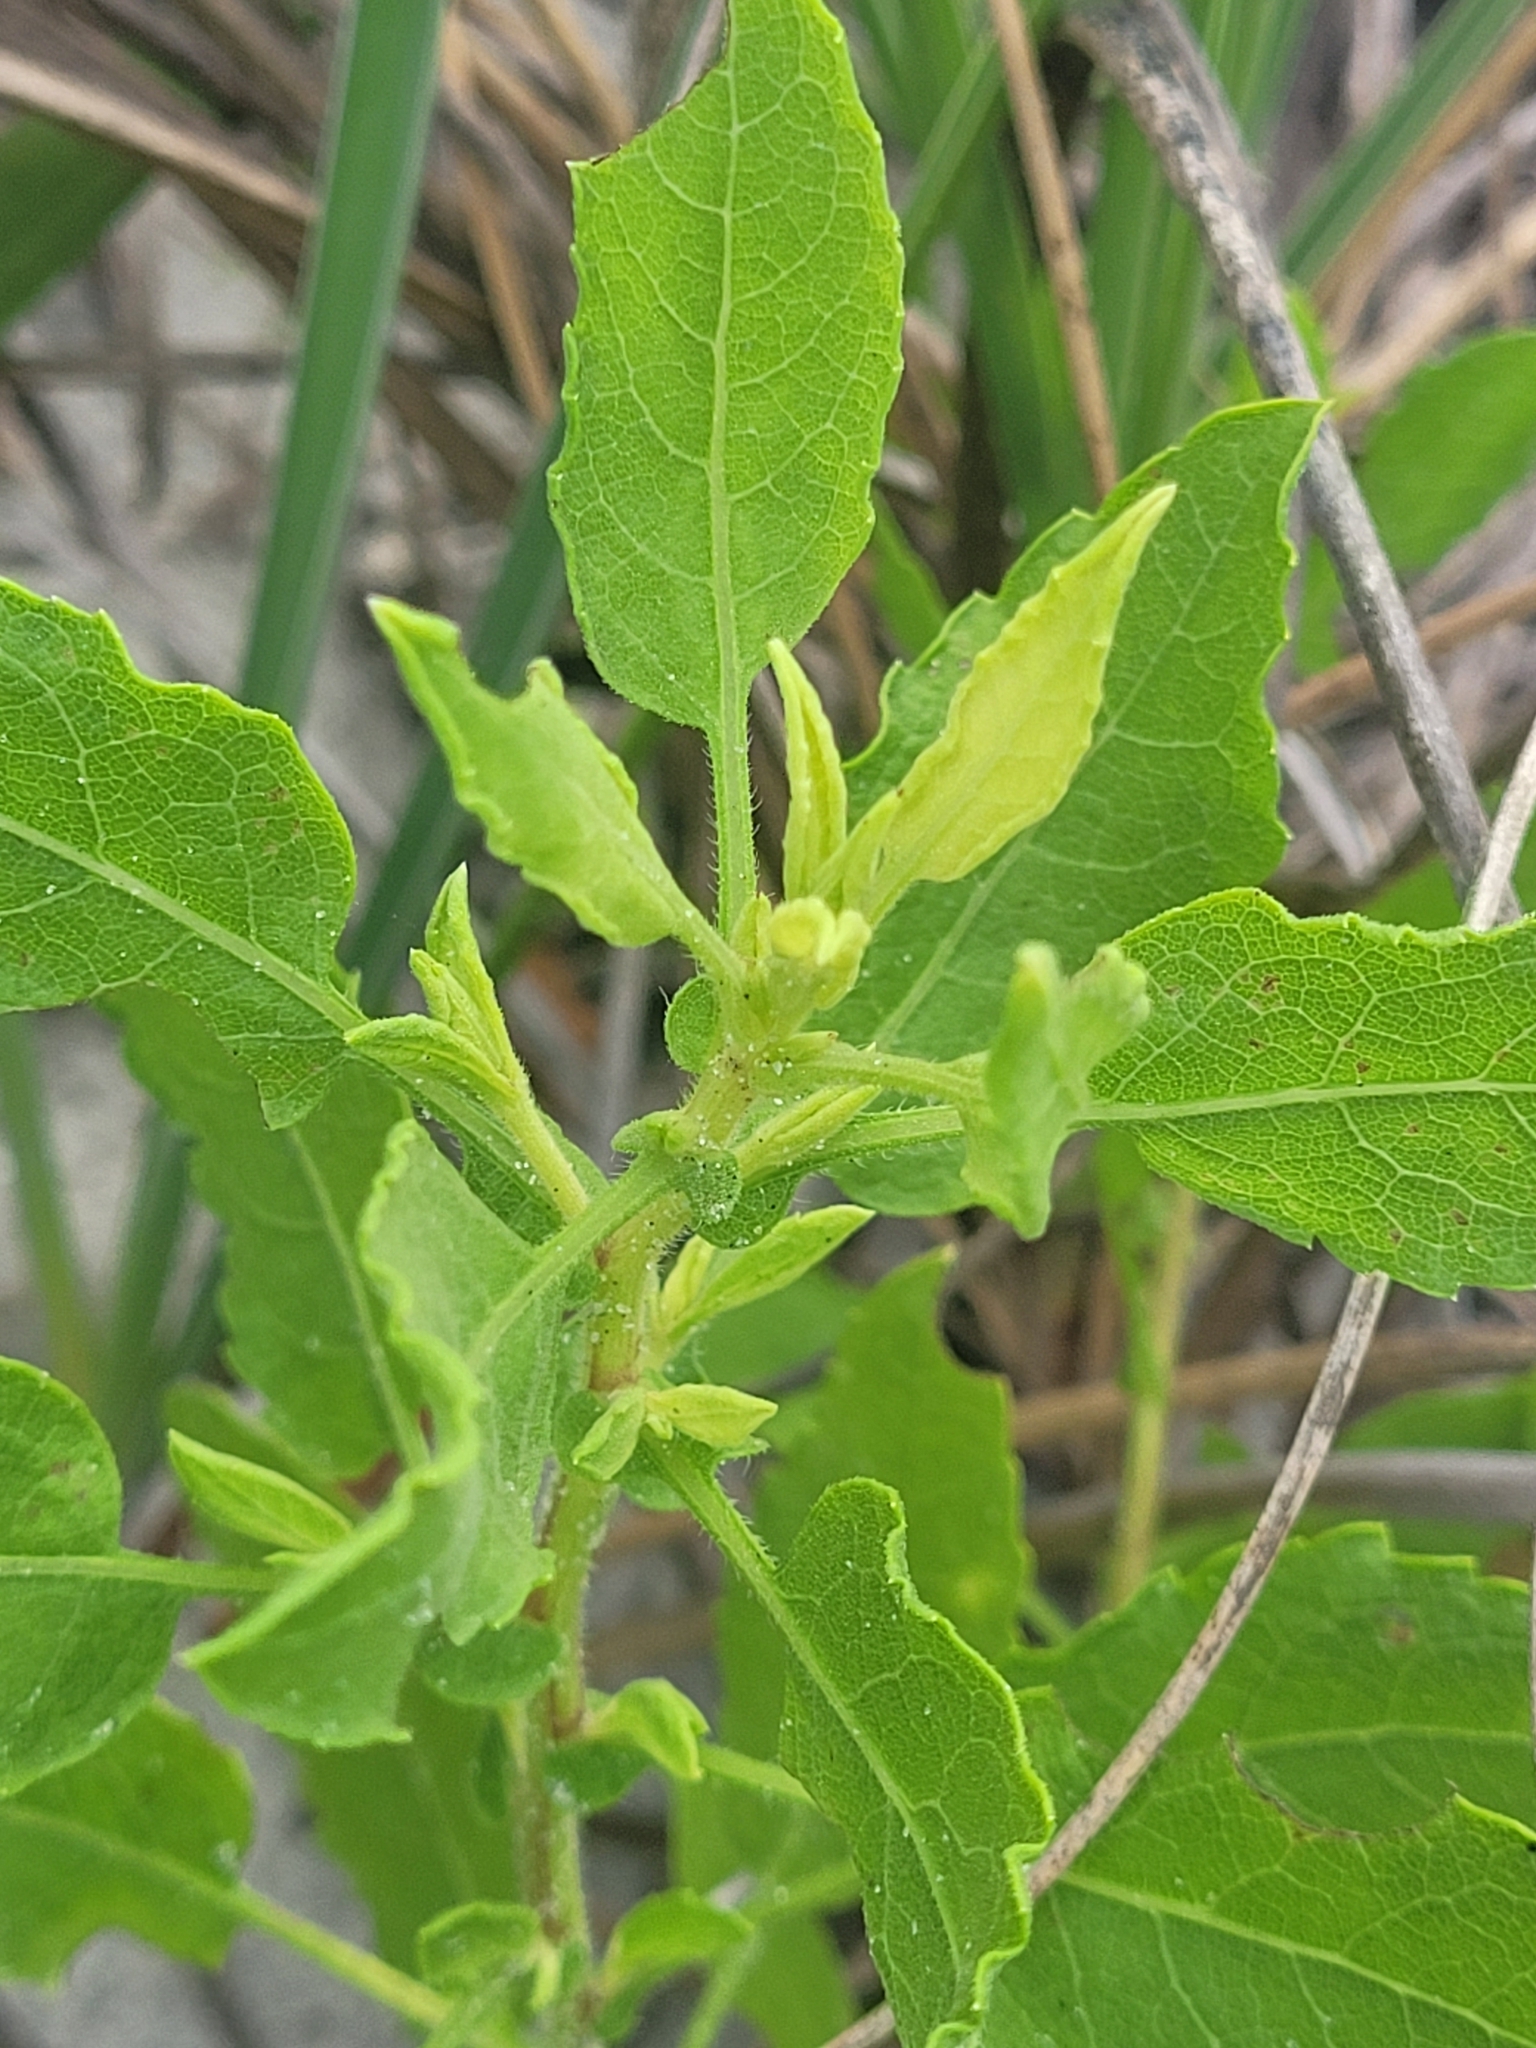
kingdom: Plantae
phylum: Tracheophyta
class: Magnoliopsida
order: Asterales
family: Asteraceae
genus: Heterotheca
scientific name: Heterotheca subaxillaris
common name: Camphorweed
